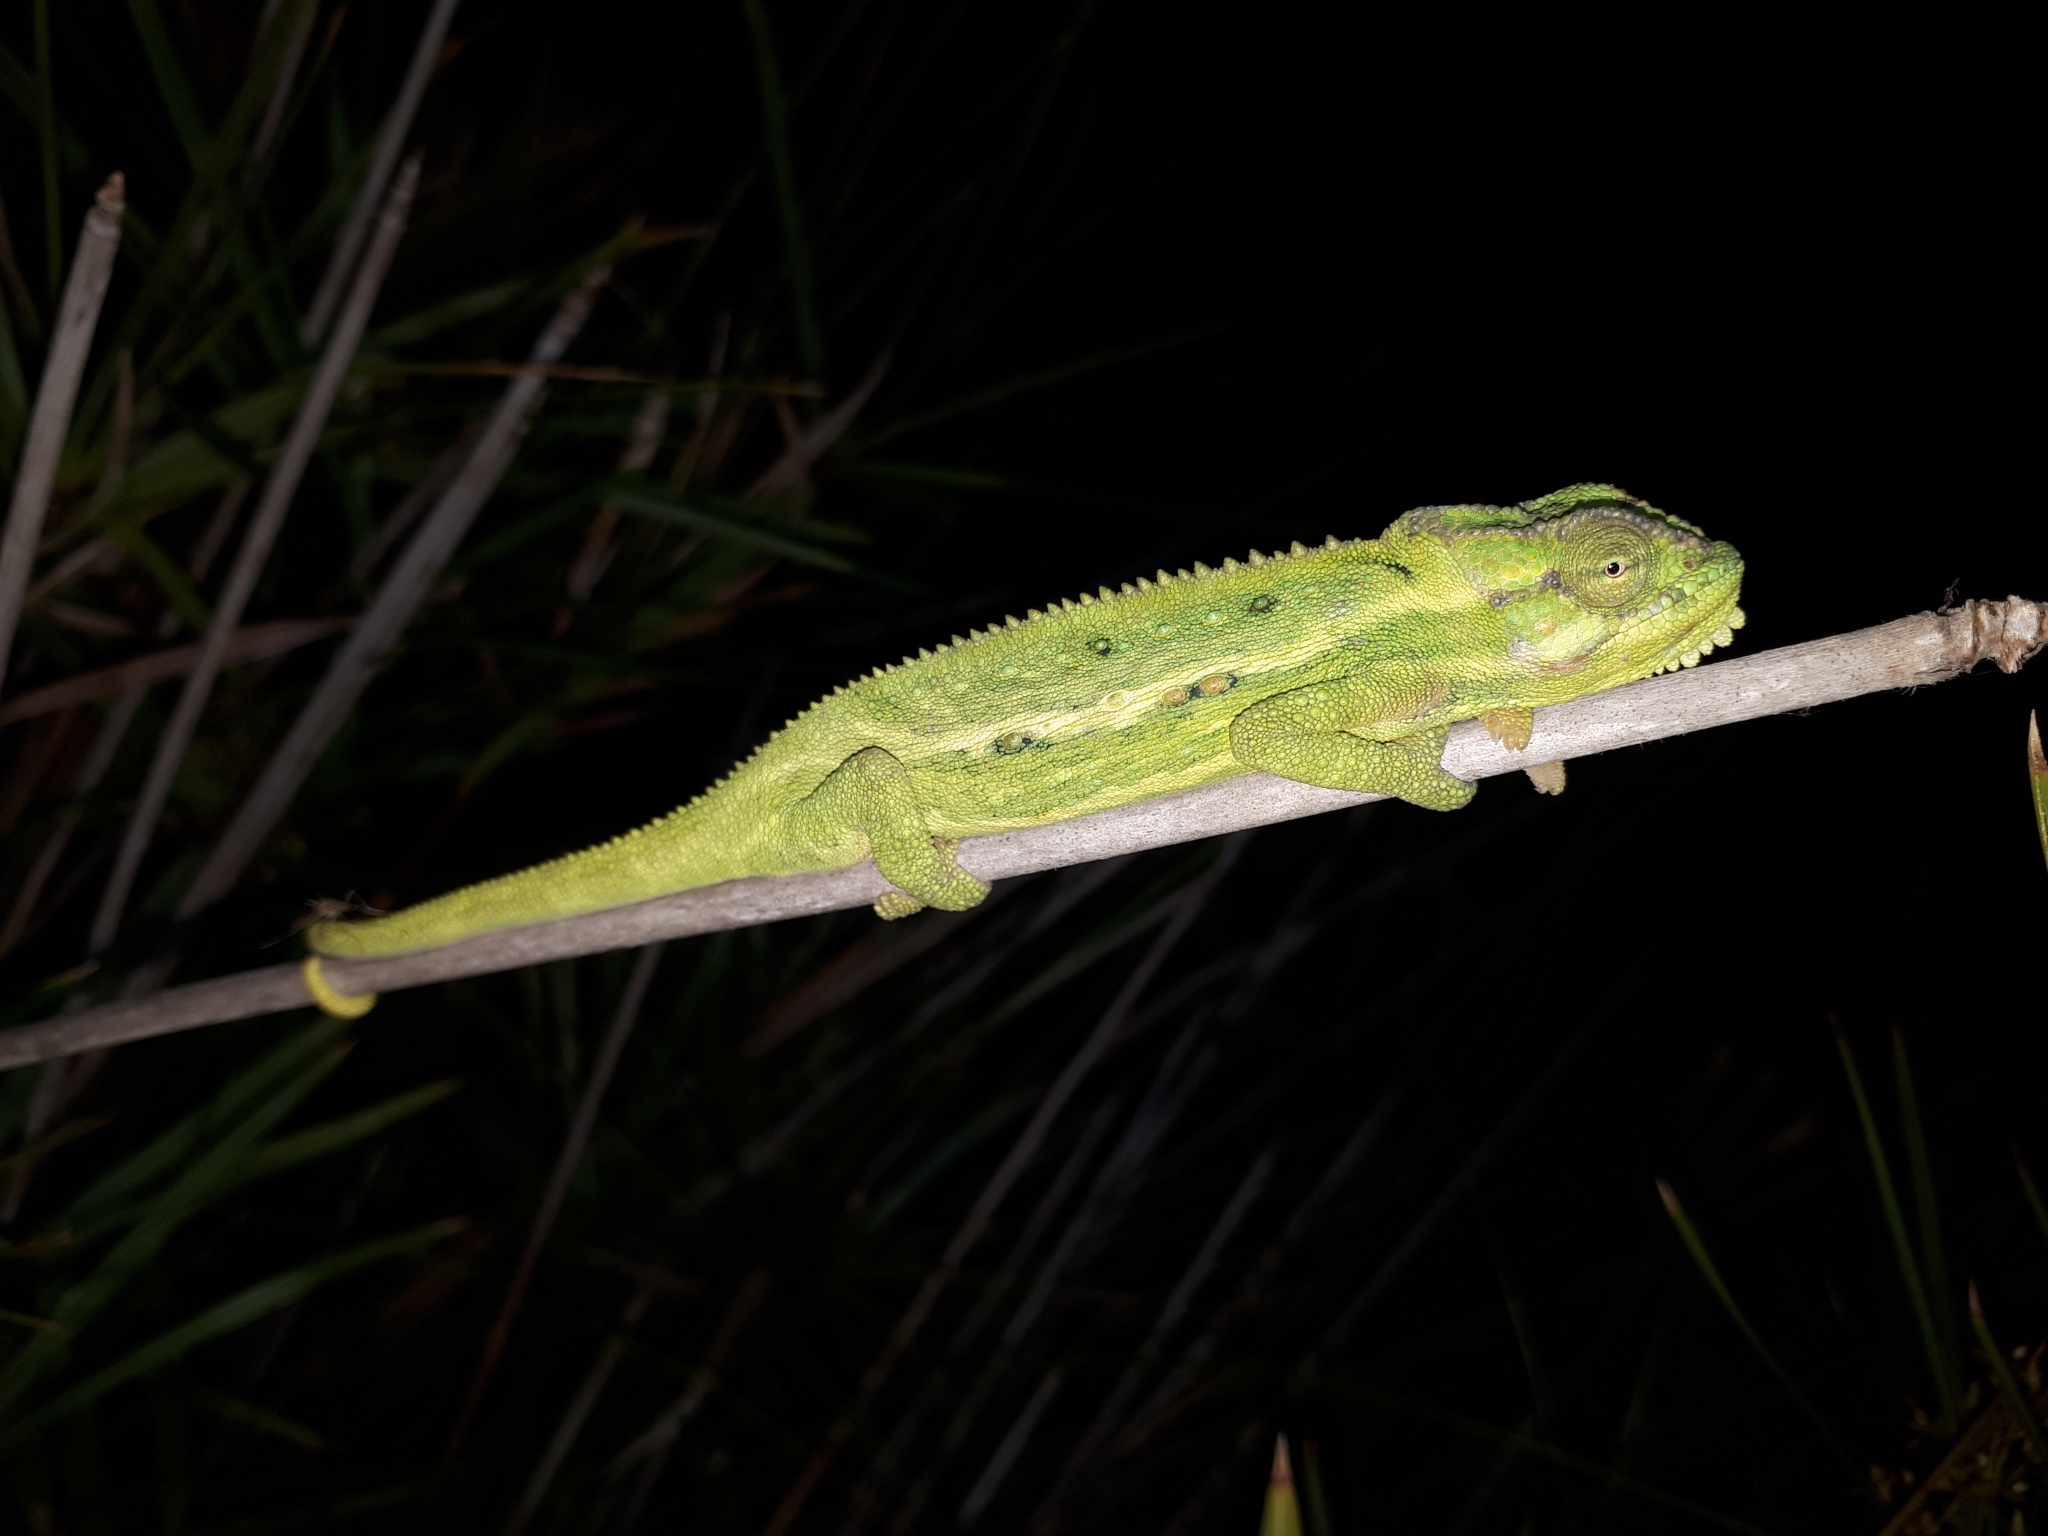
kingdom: Animalia
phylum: Chordata
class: Squamata
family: Chamaeleonidae
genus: Bradypodion
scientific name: Bradypodion pumilum
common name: Cape dwarf chameleon
